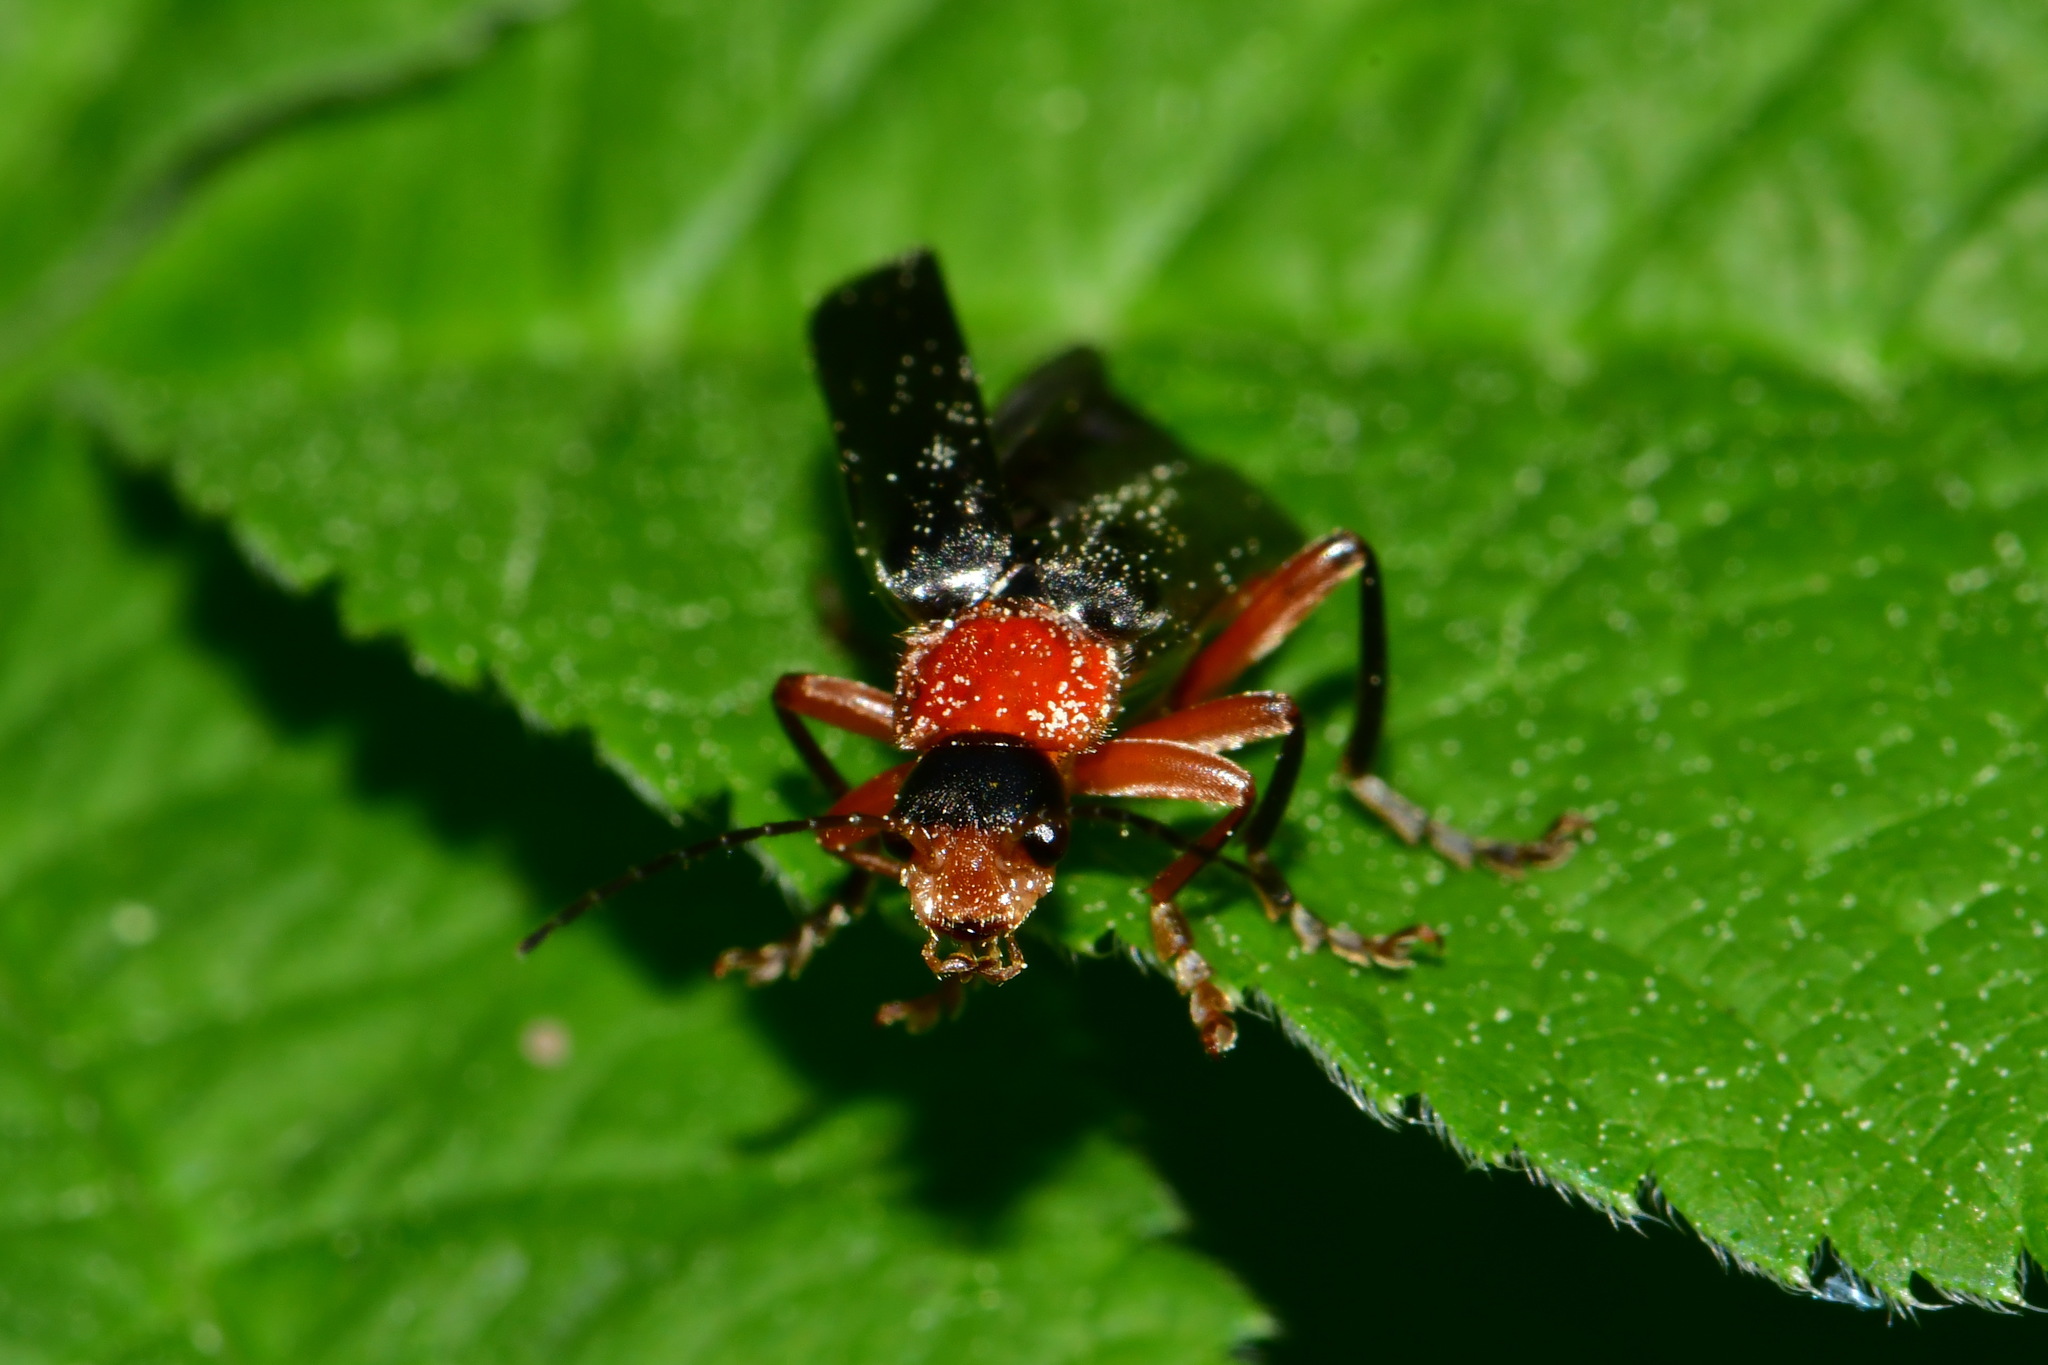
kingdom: Animalia
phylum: Arthropoda
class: Insecta
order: Coleoptera
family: Cantharidae
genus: Cantharis
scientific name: Cantharis pellucida
